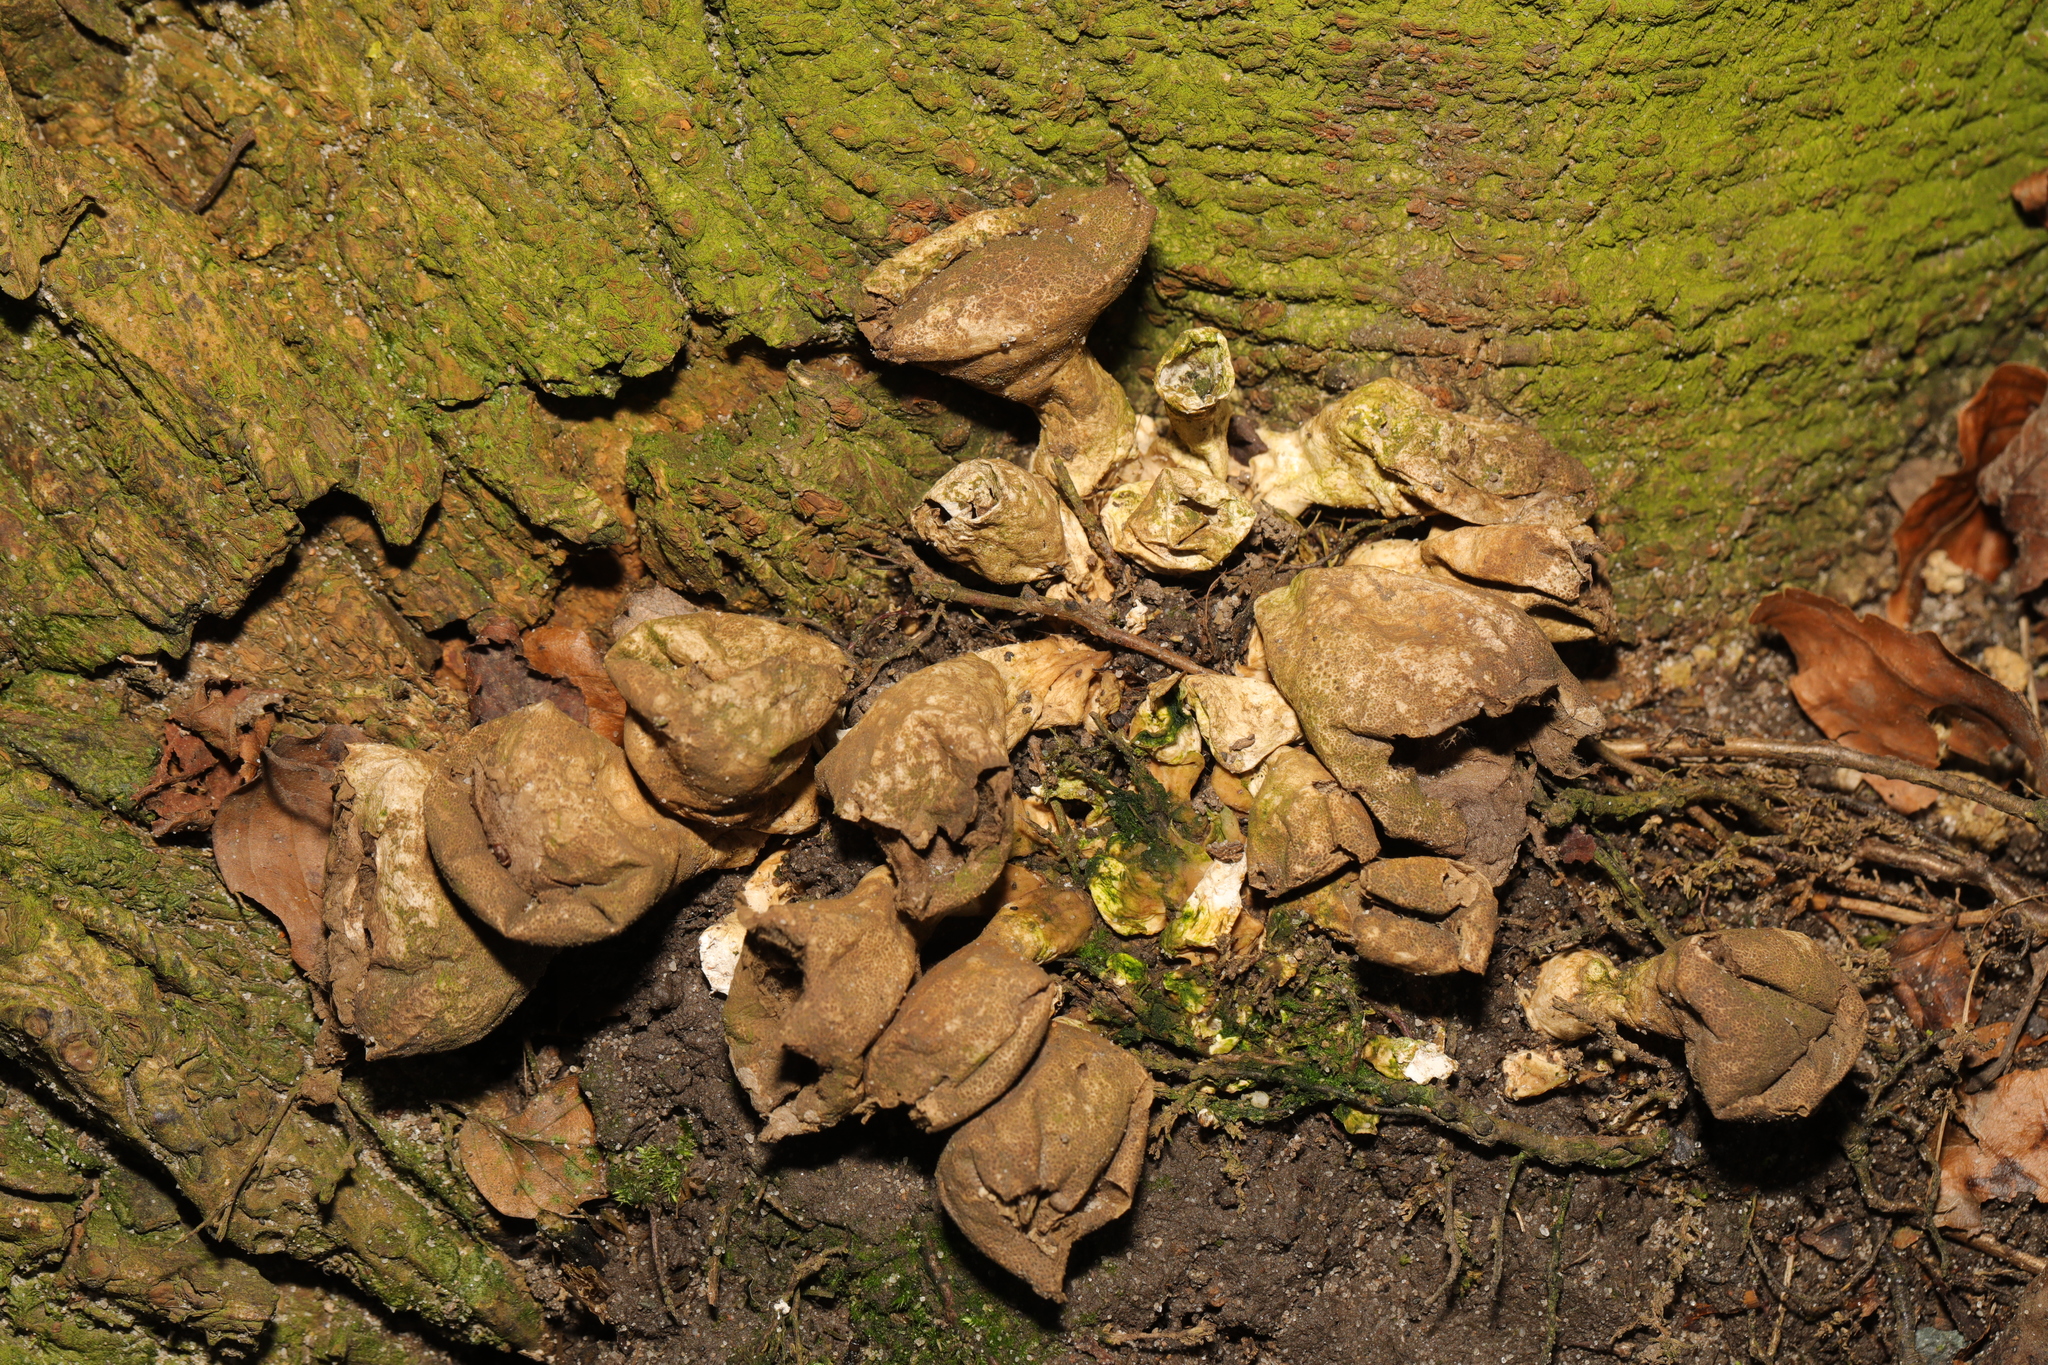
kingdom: Fungi
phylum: Basidiomycota
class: Agaricomycetes
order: Agaricales
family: Lycoperdaceae
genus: Apioperdon
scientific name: Apioperdon pyriforme
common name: Pear-shaped puffball
